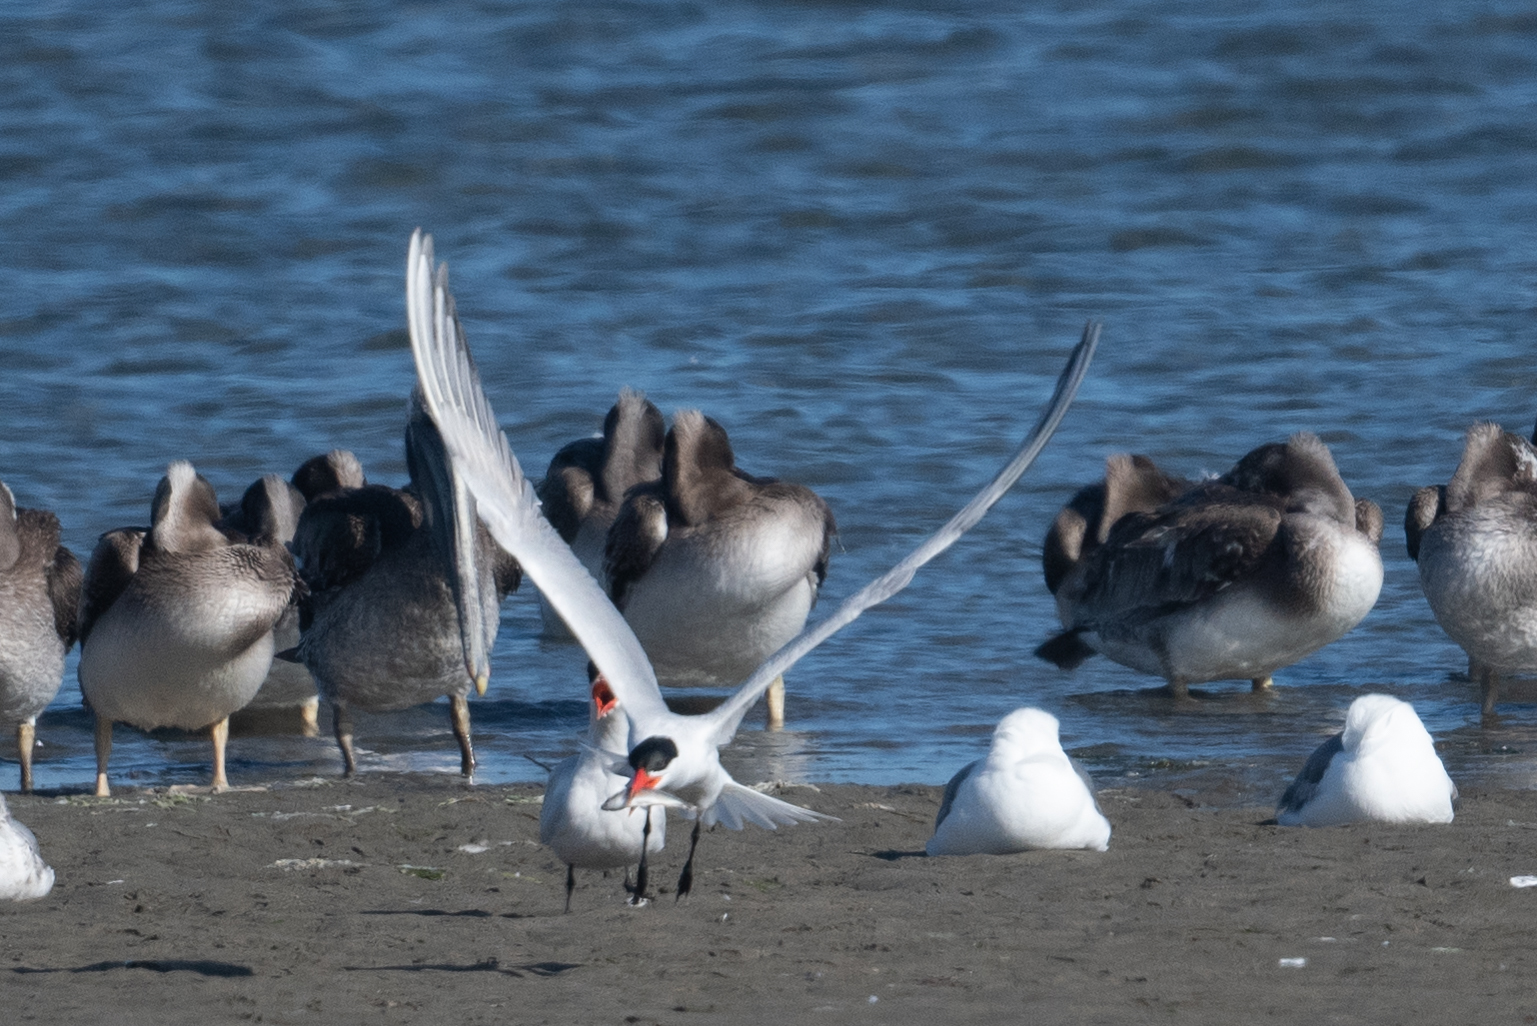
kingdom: Animalia
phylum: Chordata
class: Aves
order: Charadriiformes
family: Laridae
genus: Hydroprogne
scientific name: Hydroprogne caspia
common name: Caspian tern
